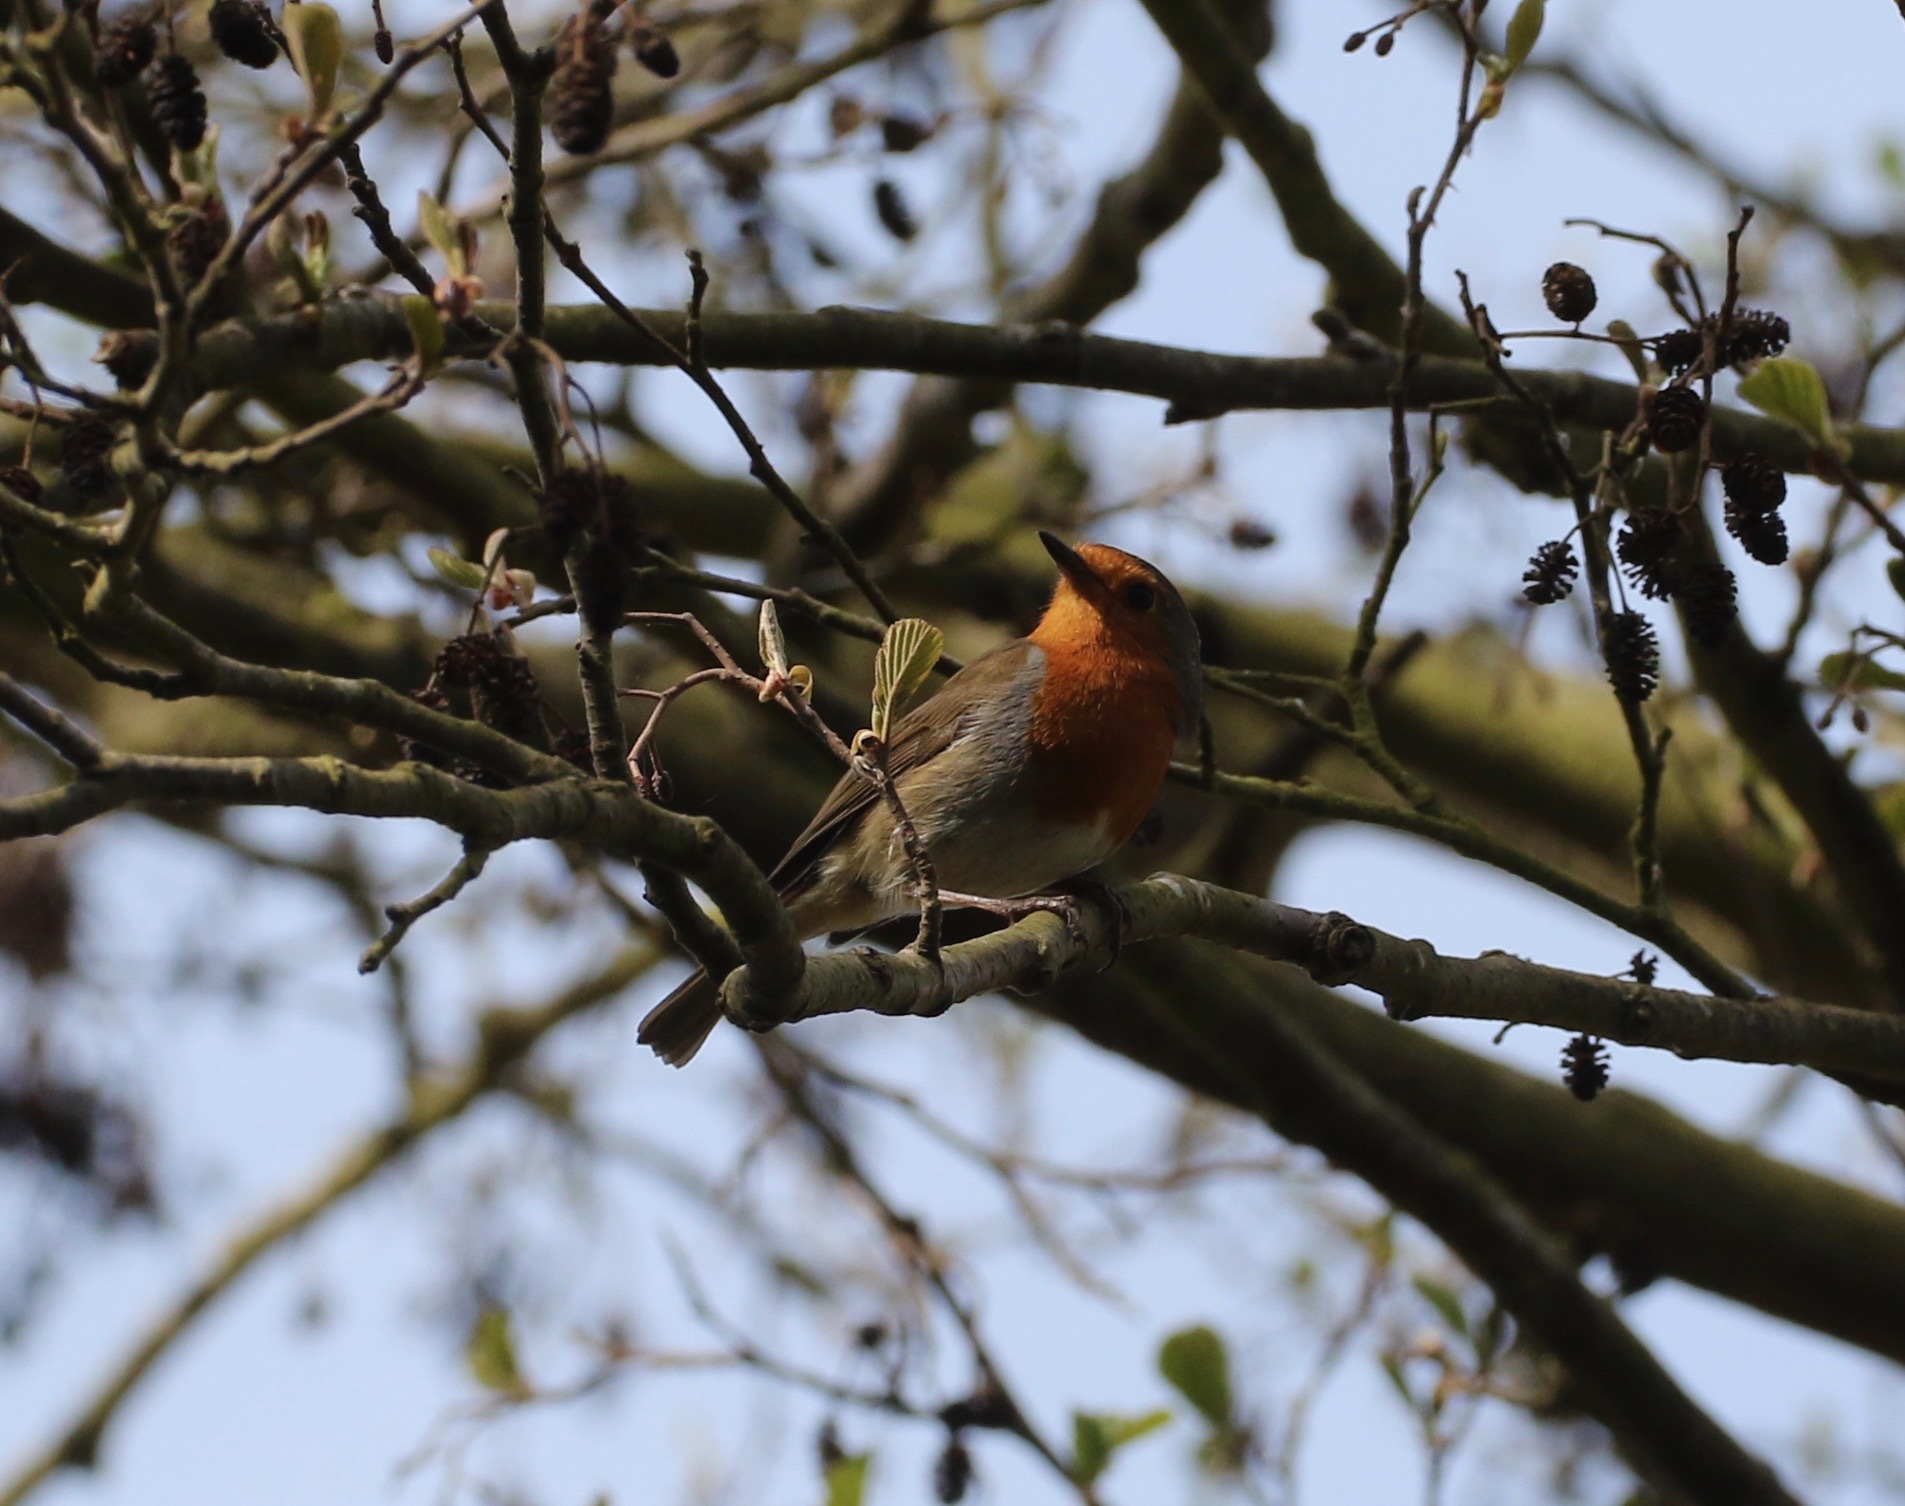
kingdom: Animalia
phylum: Chordata
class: Aves
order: Passeriformes
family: Muscicapidae
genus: Erithacus
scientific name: Erithacus rubecula
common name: European robin
